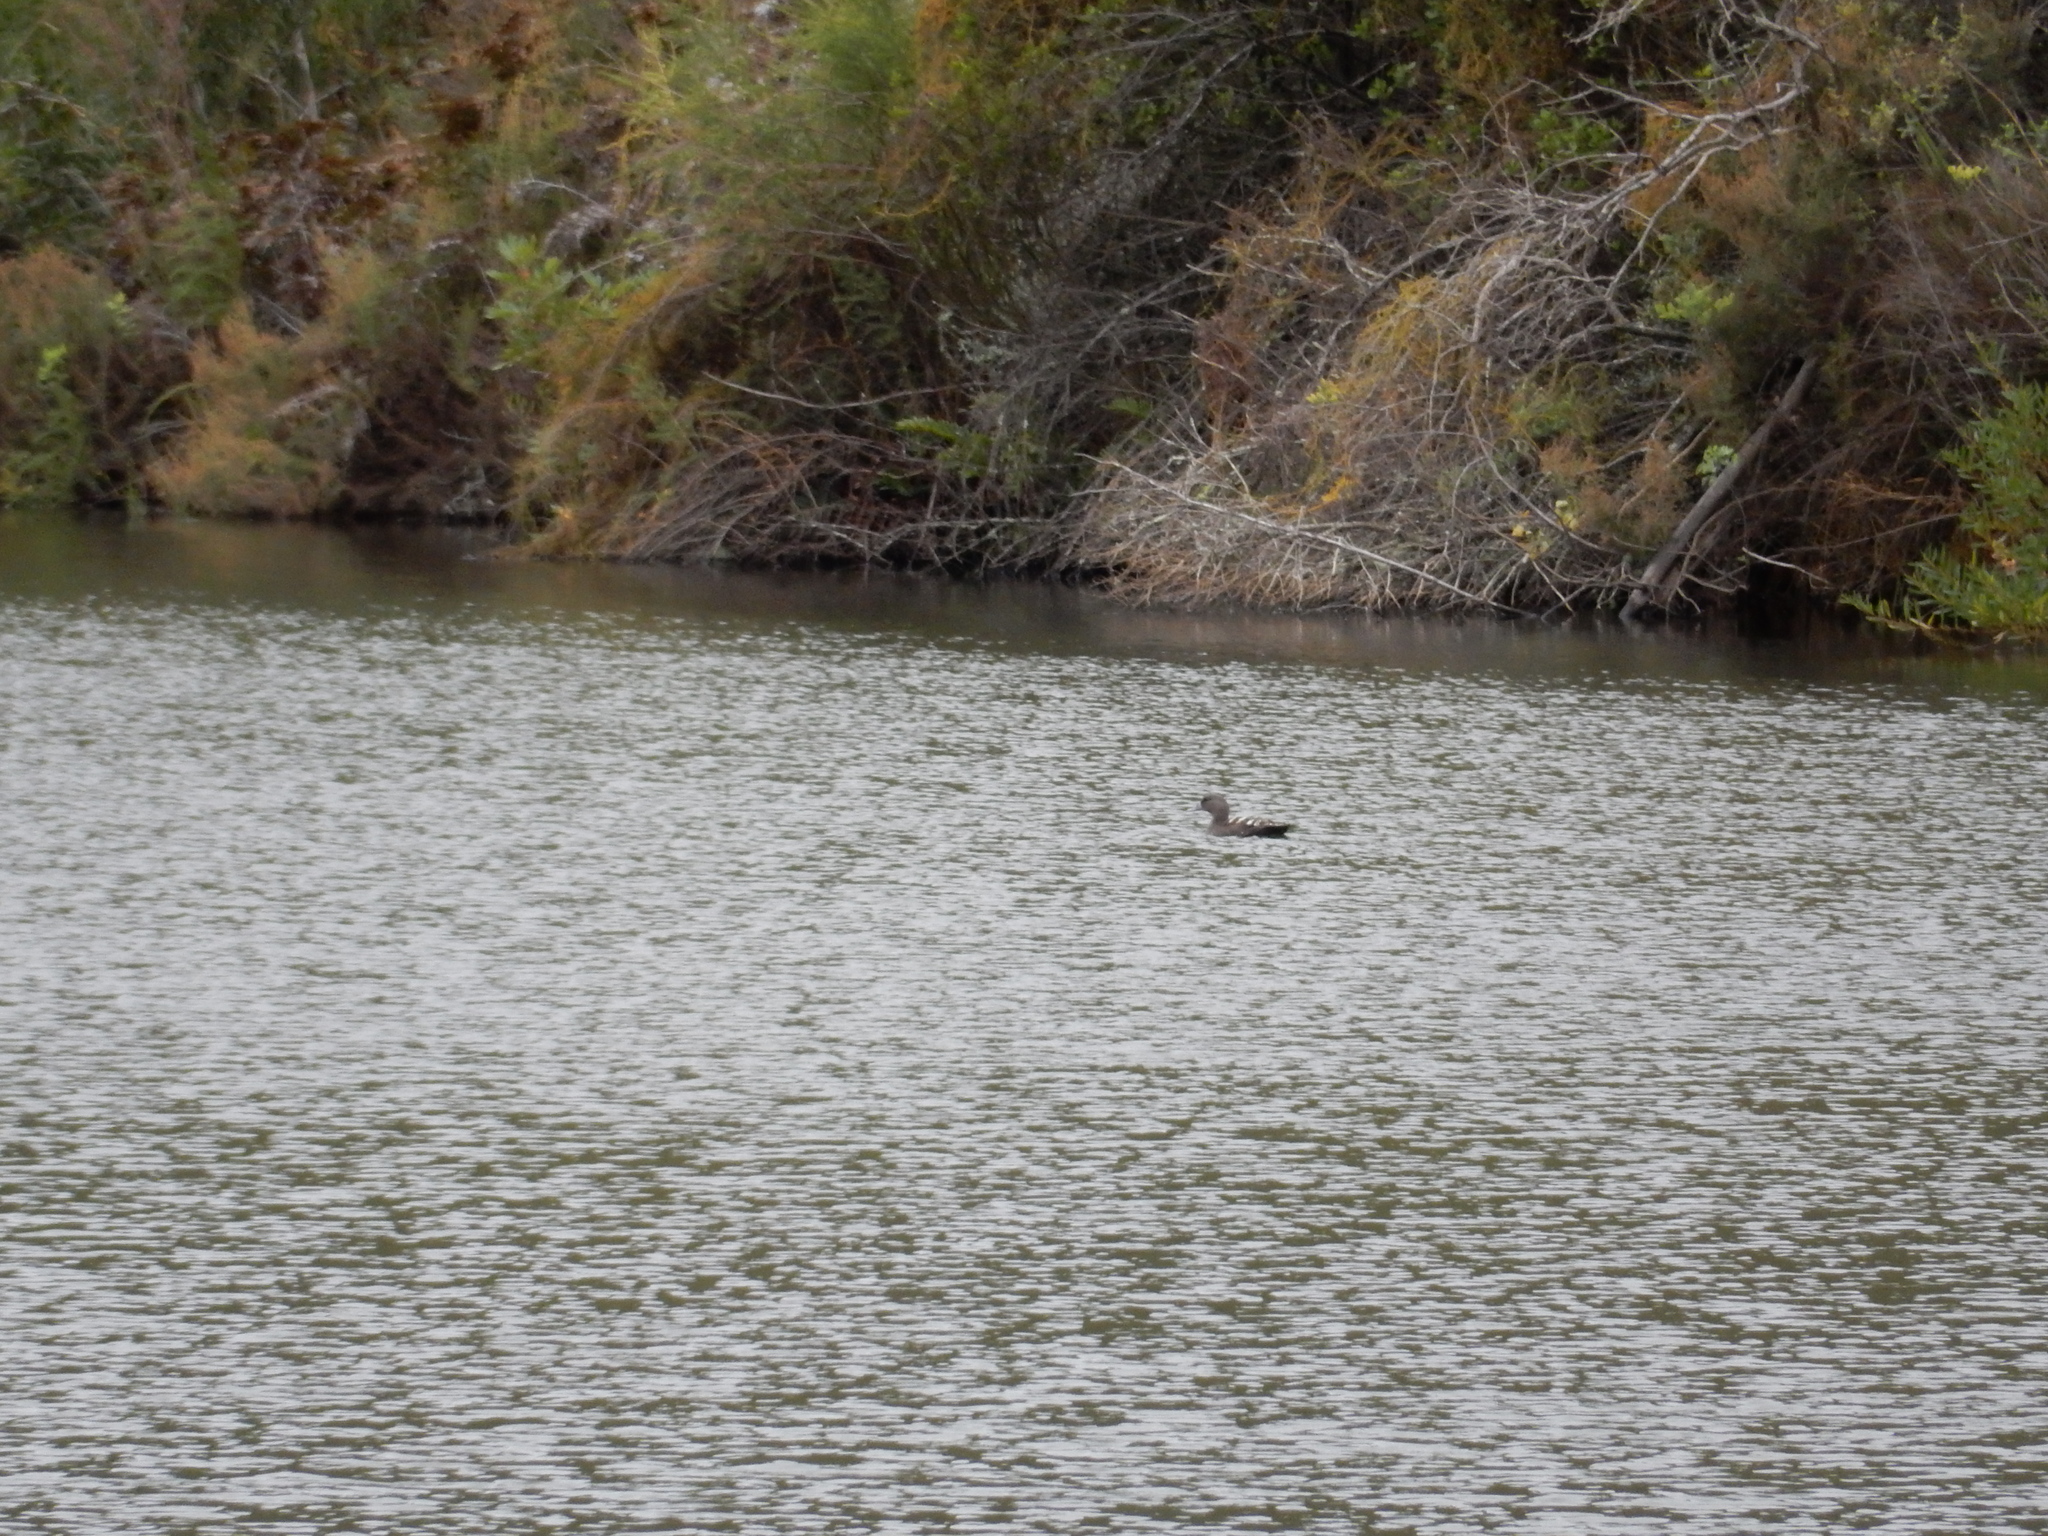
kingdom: Animalia
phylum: Chordata
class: Aves
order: Anseriformes
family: Anatidae
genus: Anas
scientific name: Anas sparsa
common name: African black duck
